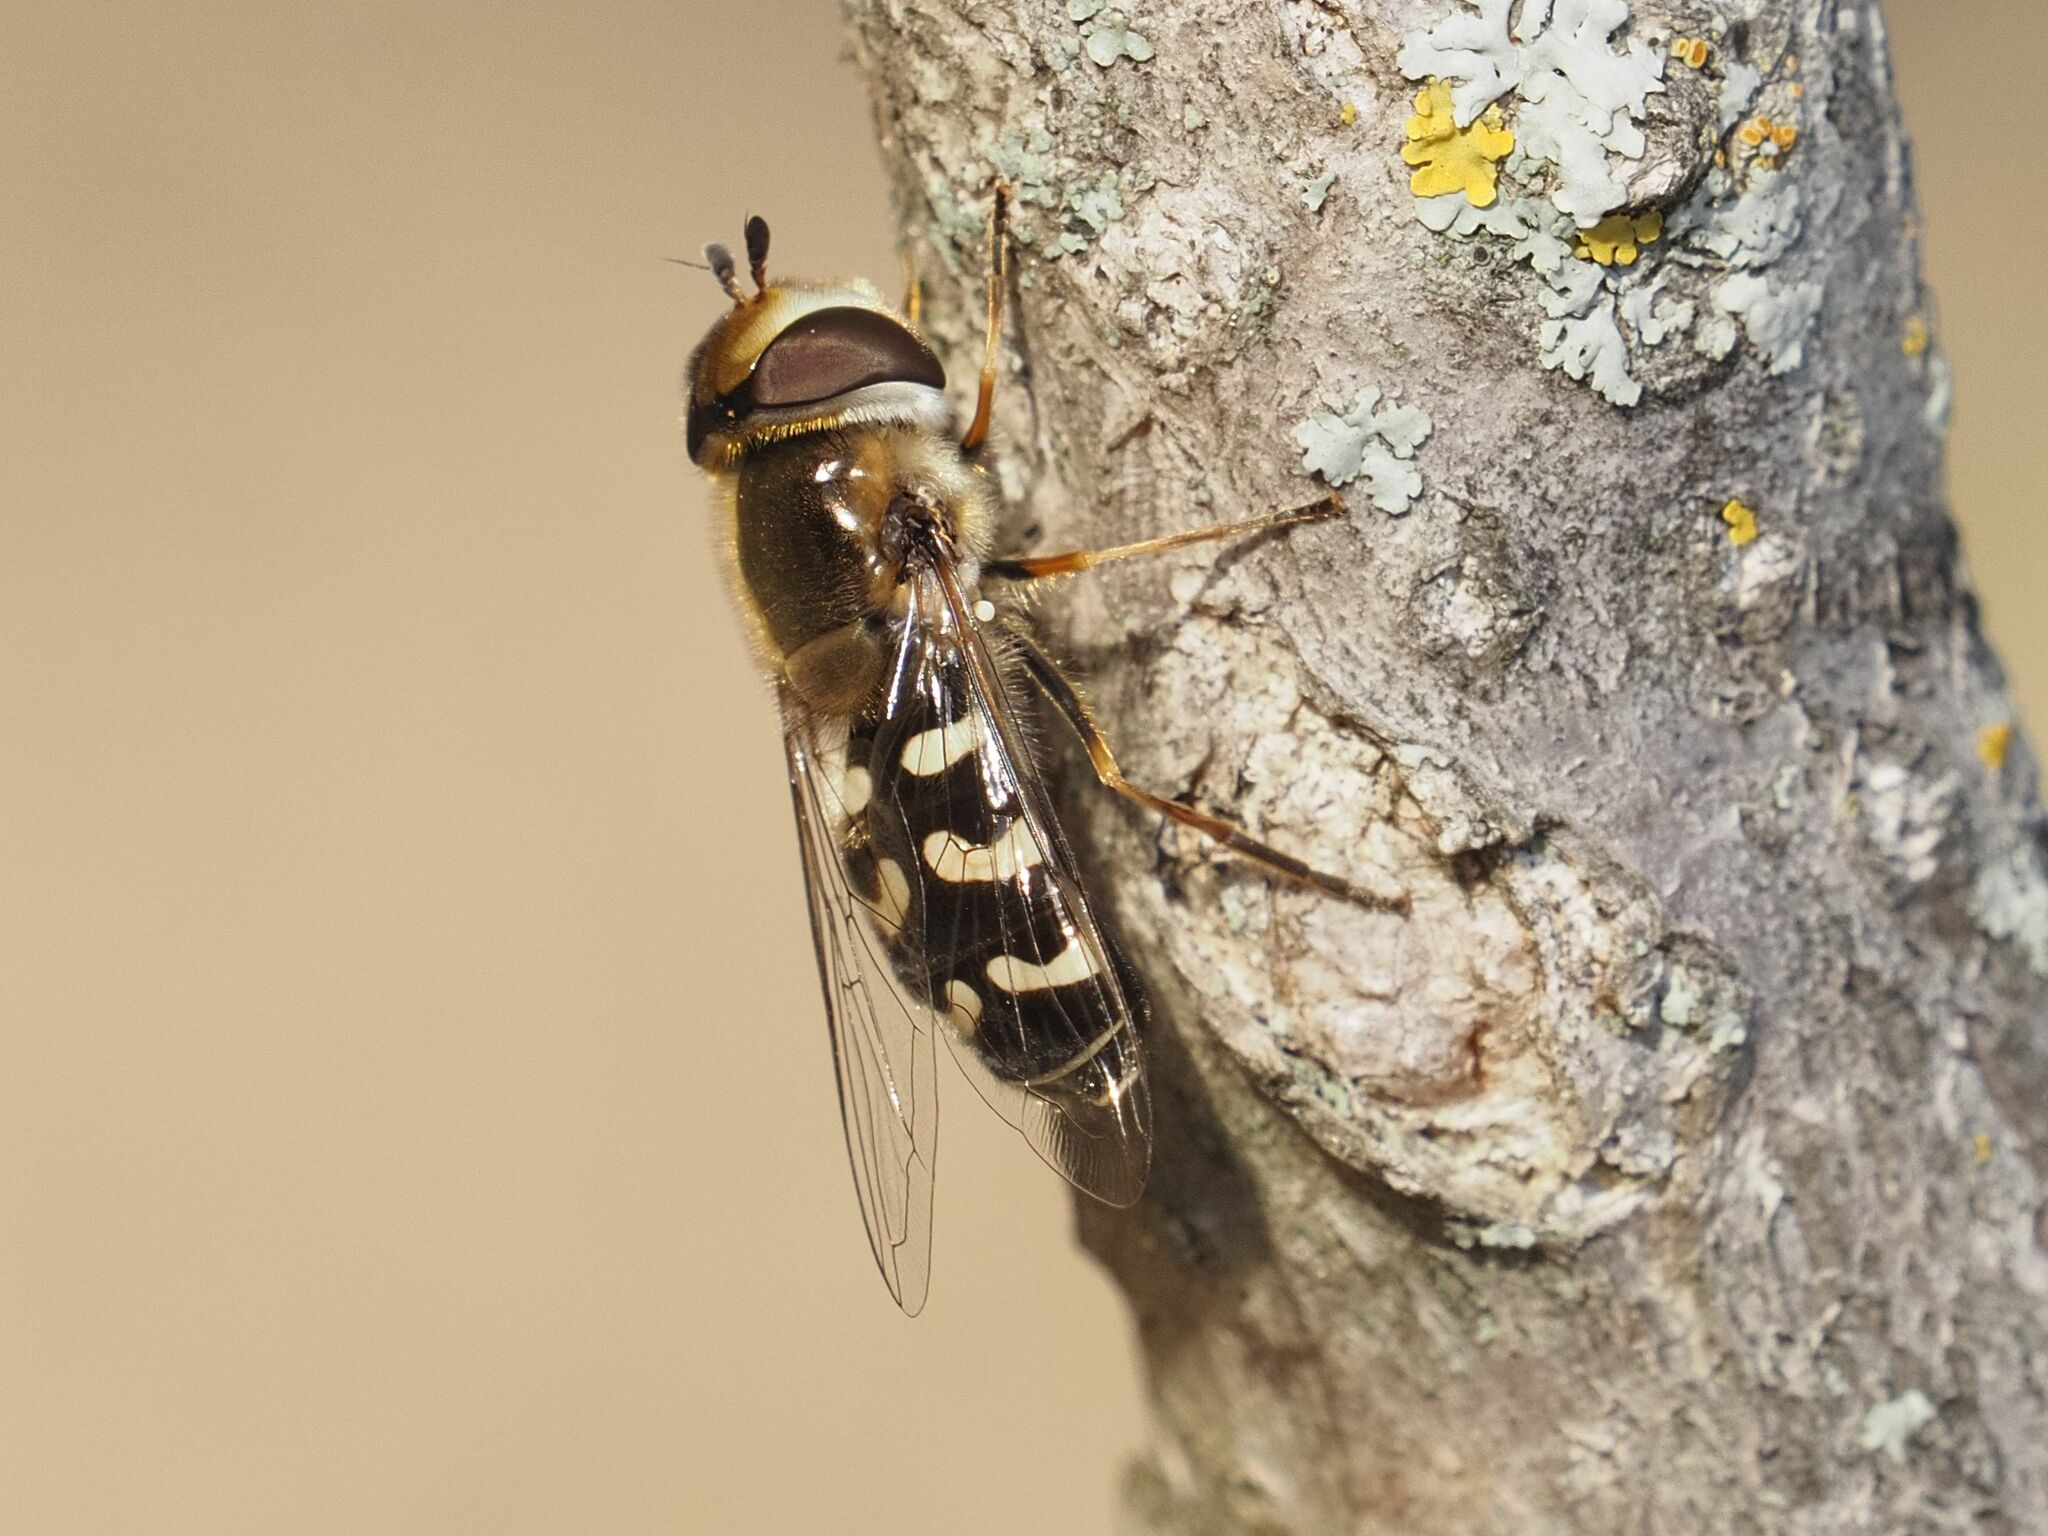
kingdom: Animalia
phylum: Arthropoda
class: Insecta
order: Diptera
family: Syrphidae
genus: Scaeva
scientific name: Scaeva pyrastri
